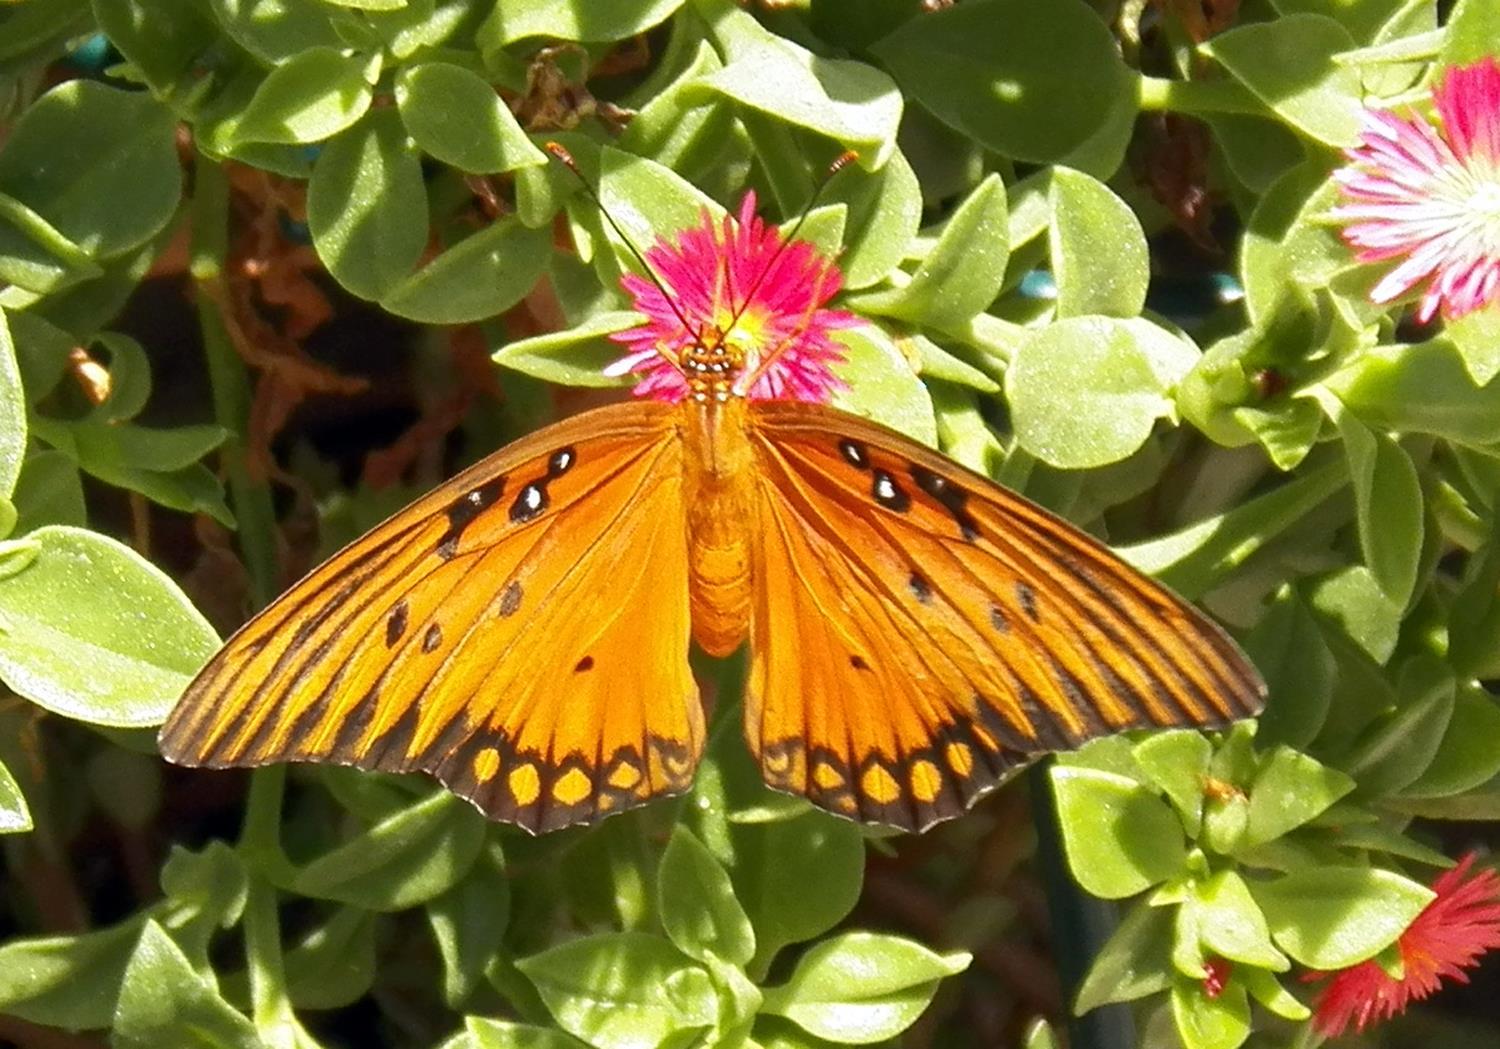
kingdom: Animalia
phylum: Arthropoda
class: Insecta
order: Lepidoptera
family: Nymphalidae
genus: Dione
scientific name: Dione vanillae
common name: Gulf fritillary
